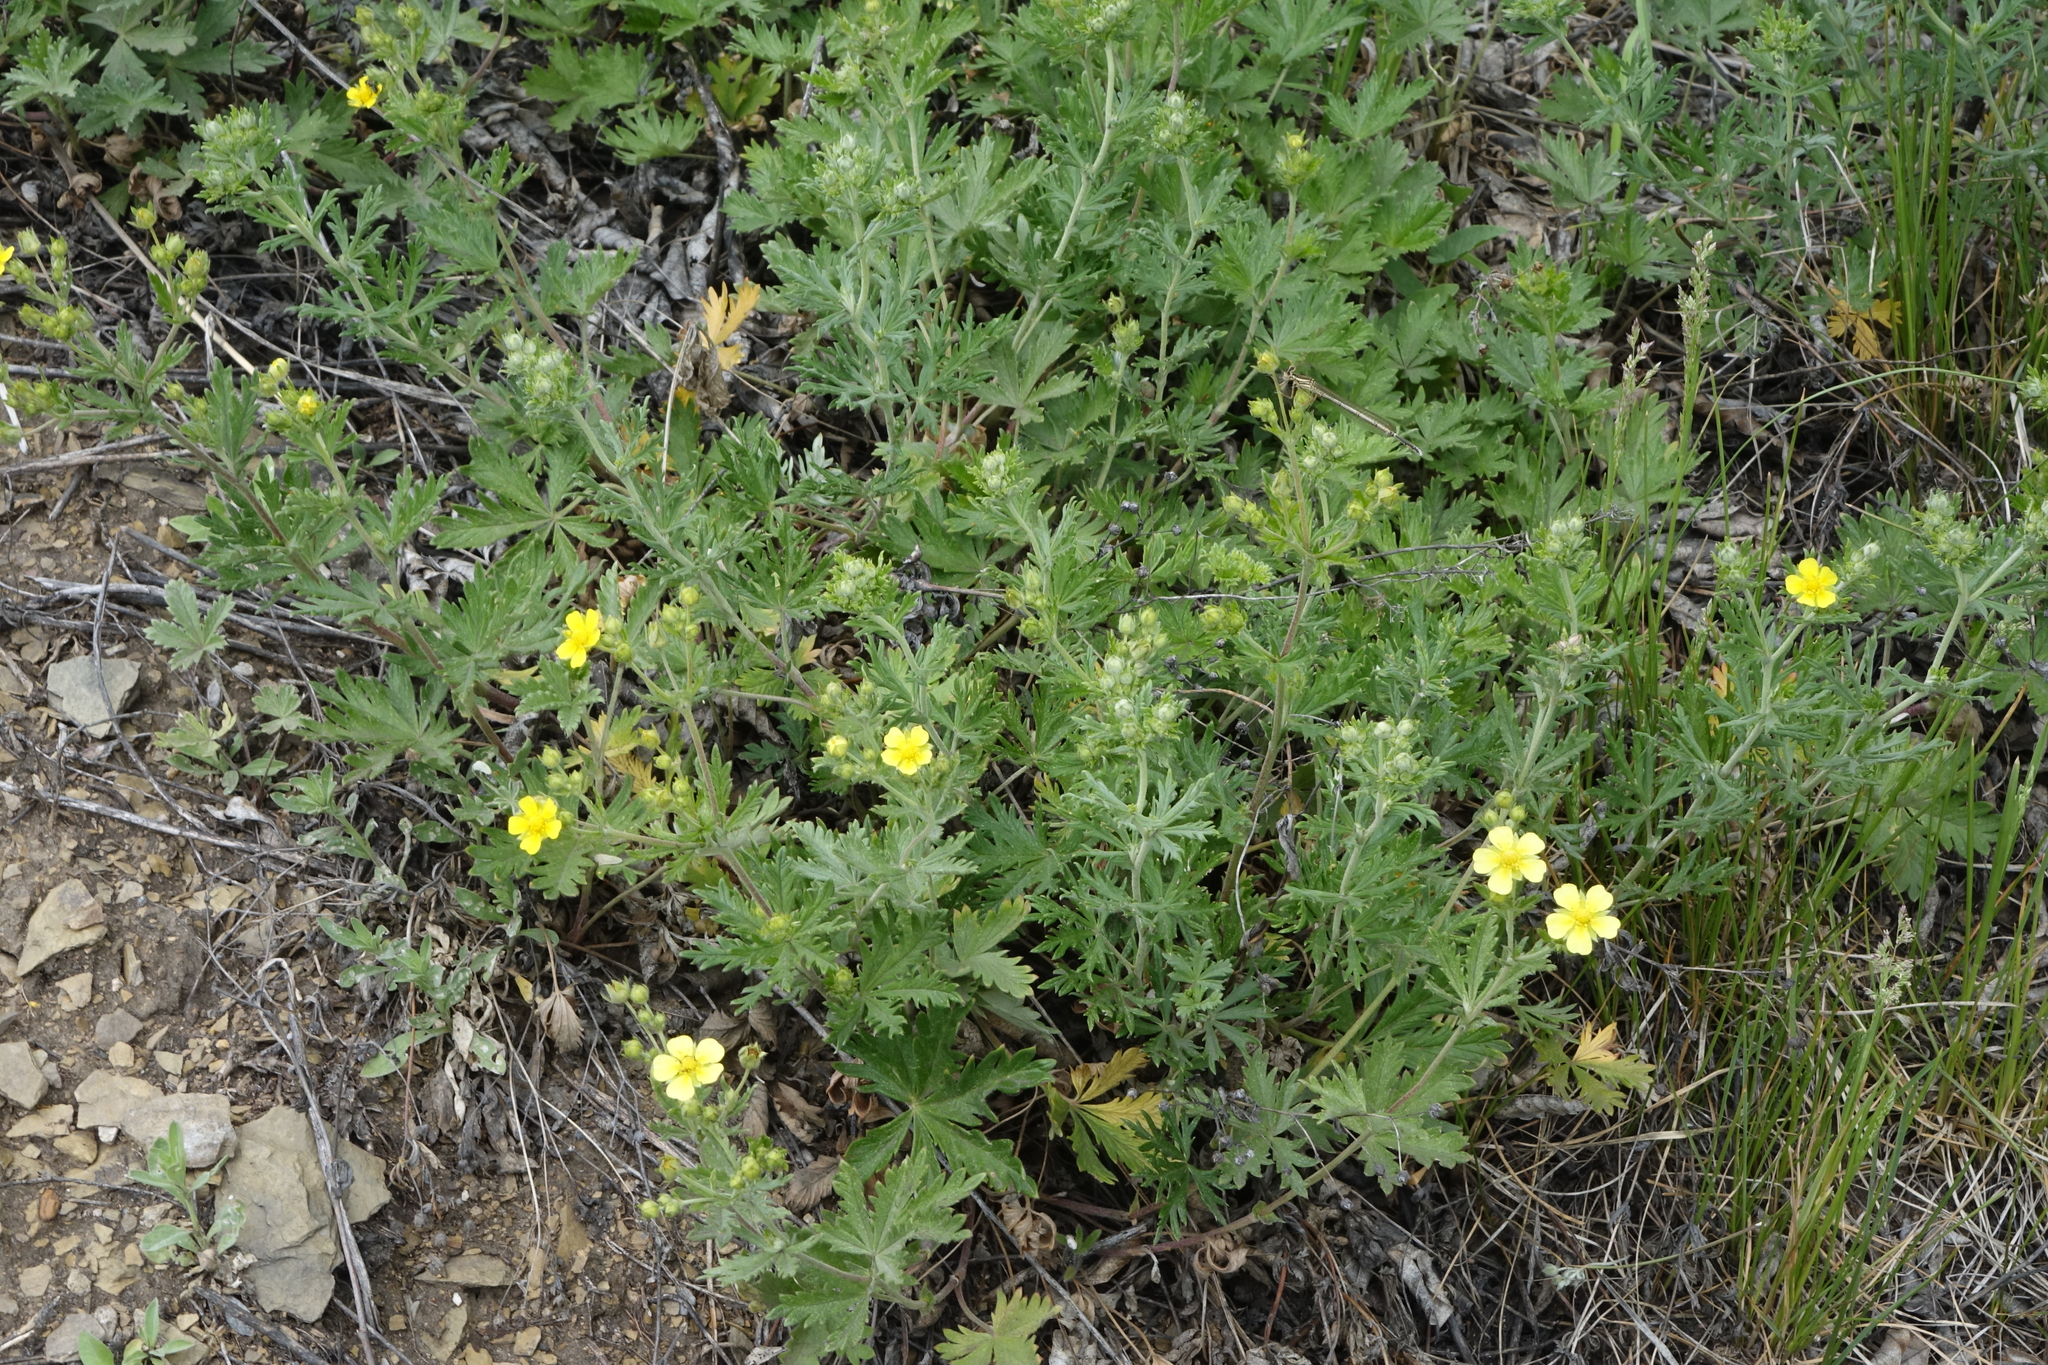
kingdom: Plantae
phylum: Tracheophyta
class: Magnoliopsida
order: Rosales
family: Rosaceae
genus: Potentilla
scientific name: Potentilla argentea
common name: Hoary cinquefoil
